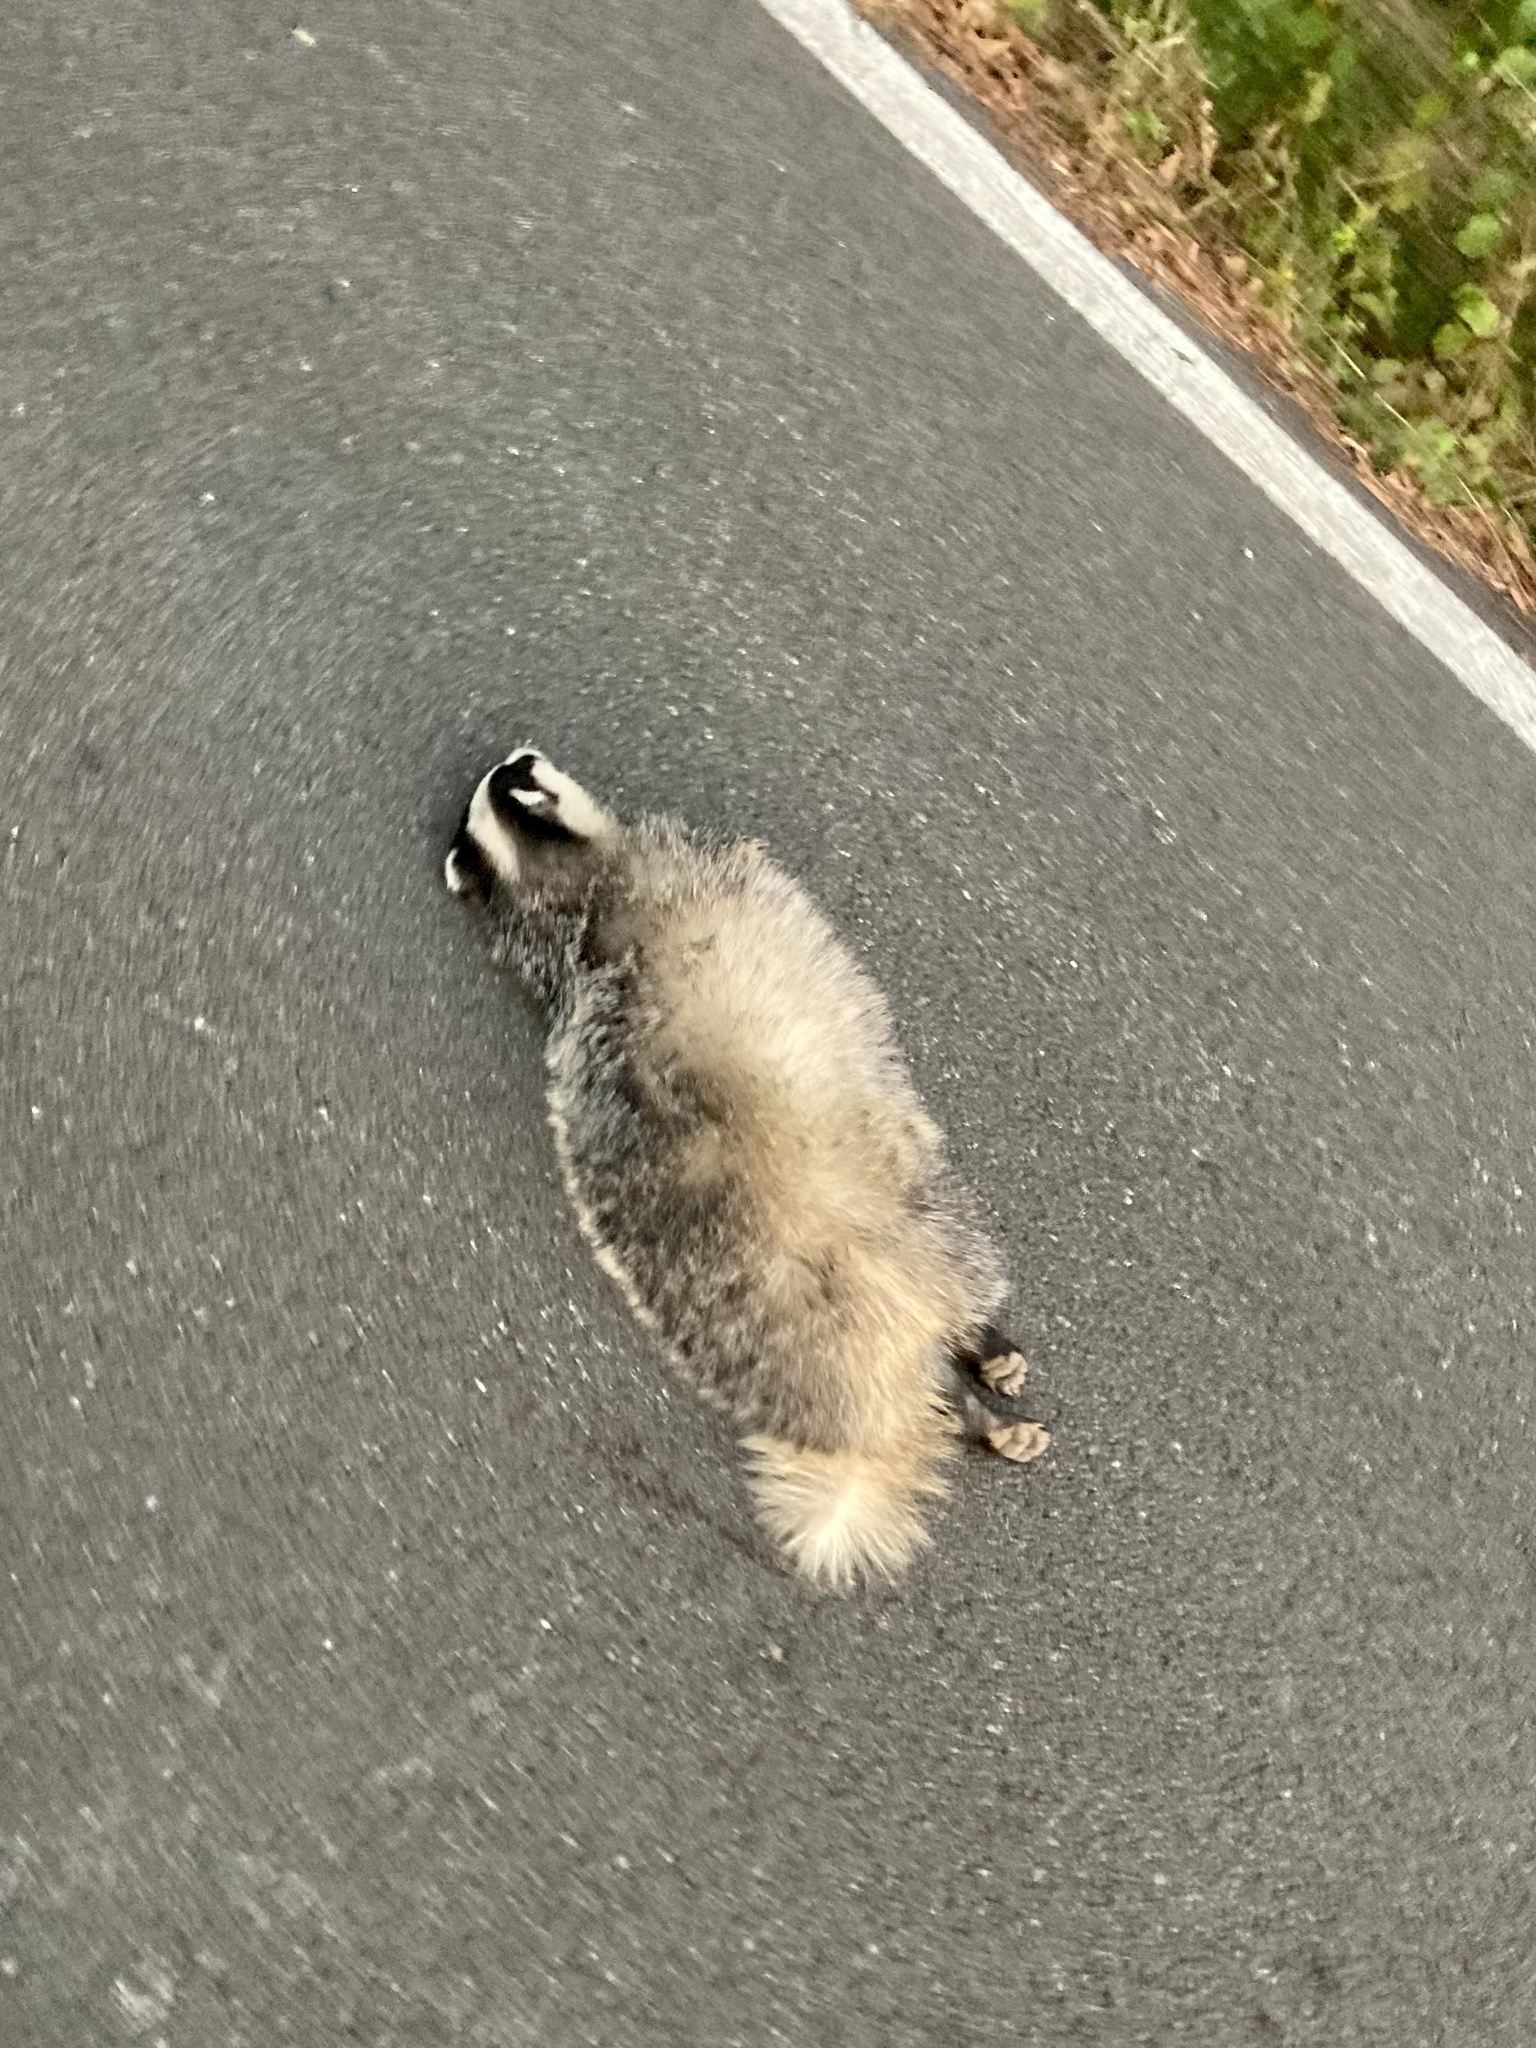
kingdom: Animalia
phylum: Chordata
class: Mammalia
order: Carnivora
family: Mustelidae
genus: Meles
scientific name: Meles meles
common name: Eurasian badger
